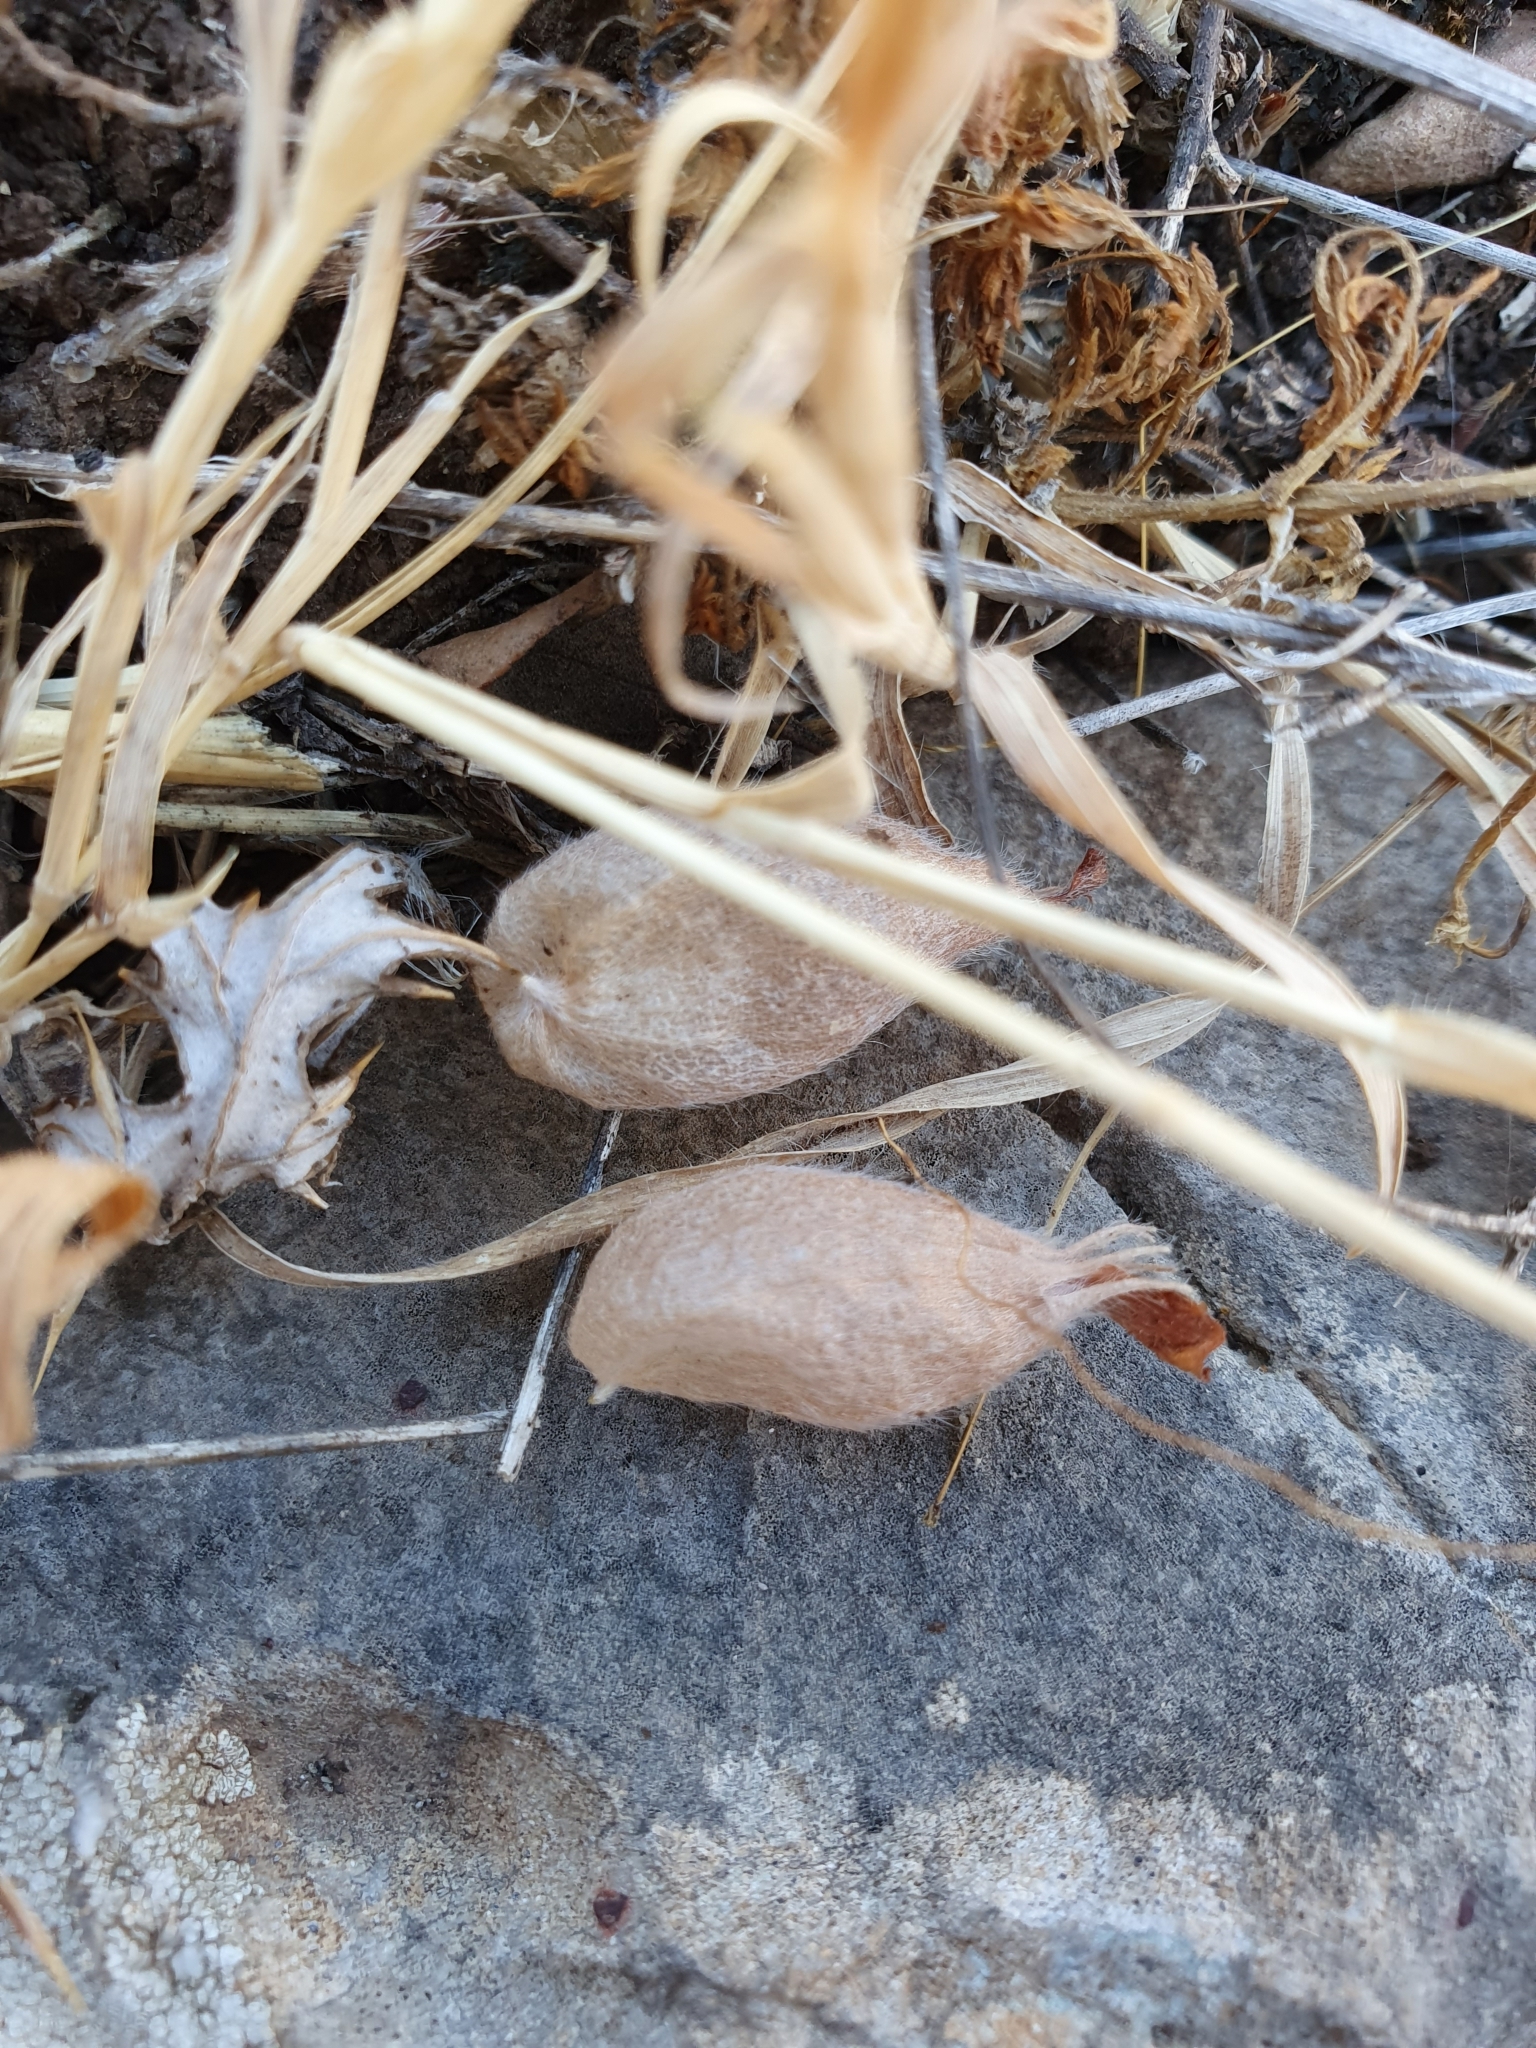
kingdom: Plantae
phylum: Tracheophyta
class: Magnoliopsida
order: Fabales
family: Fabaceae
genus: Tripodion
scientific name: Tripodion tetraphyllum
